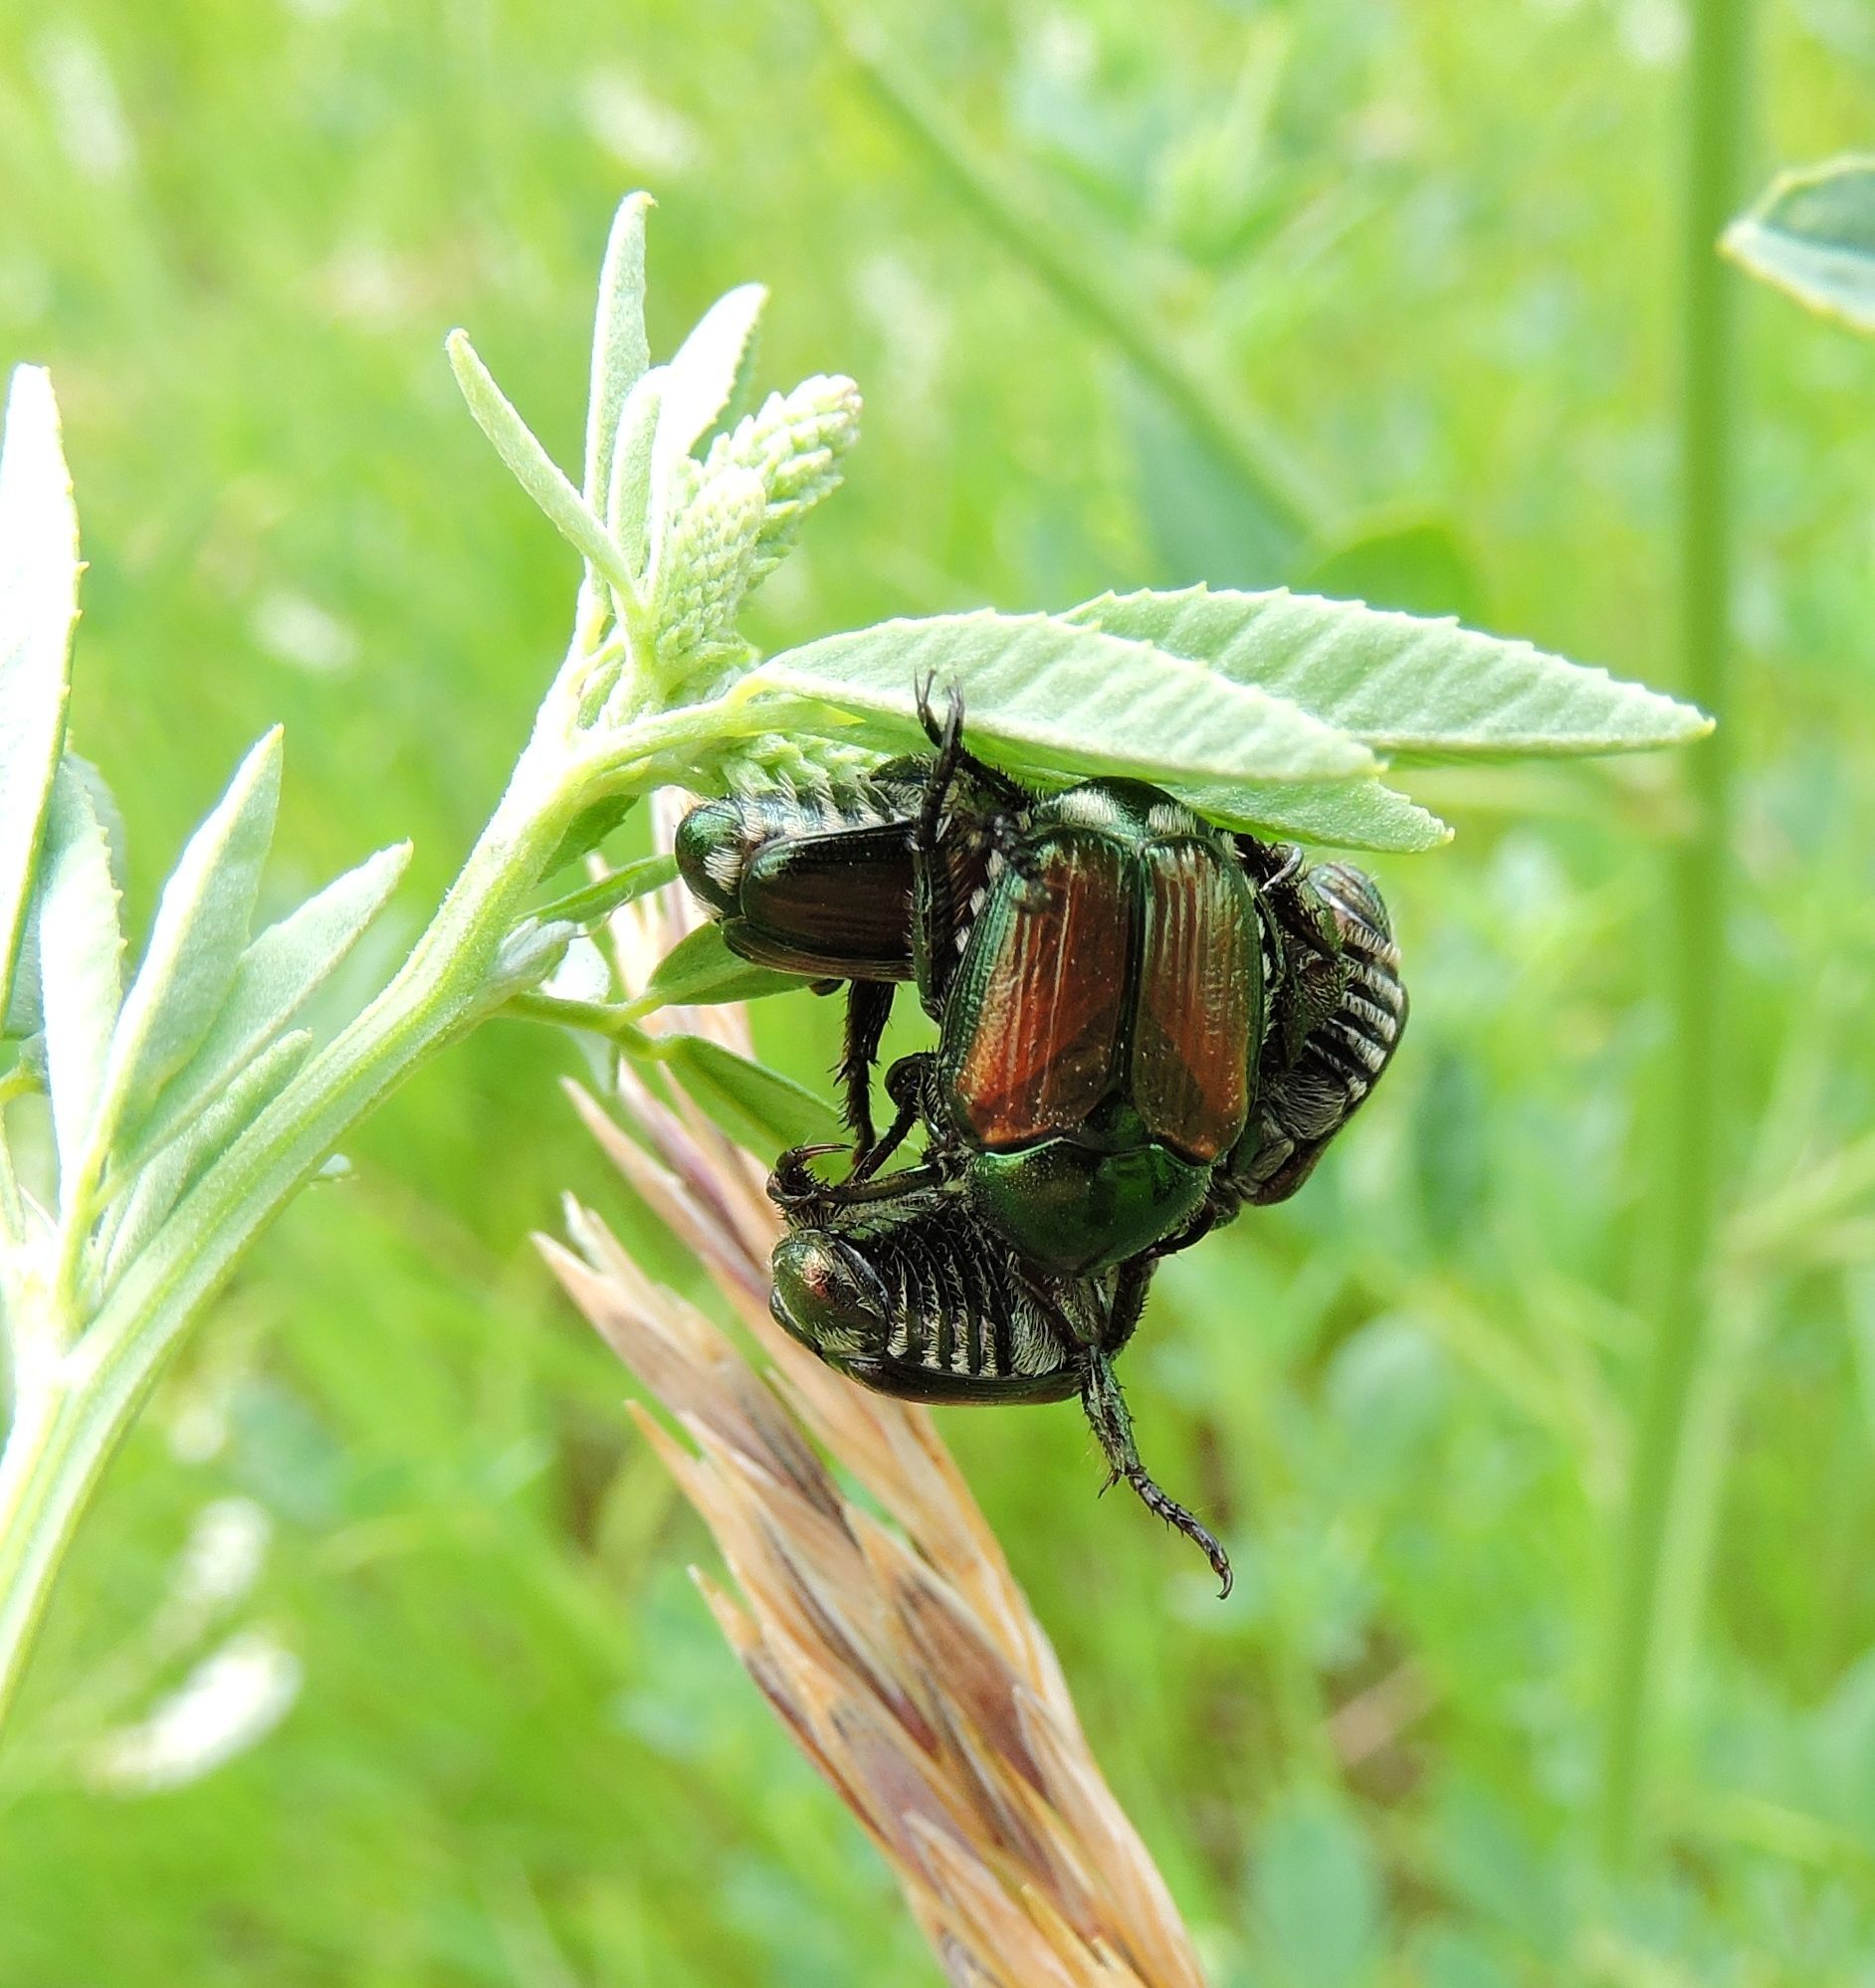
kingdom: Animalia
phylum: Arthropoda
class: Insecta
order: Coleoptera
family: Scarabaeidae
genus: Popillia
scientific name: Popillia japonica
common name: Japanese beetle
